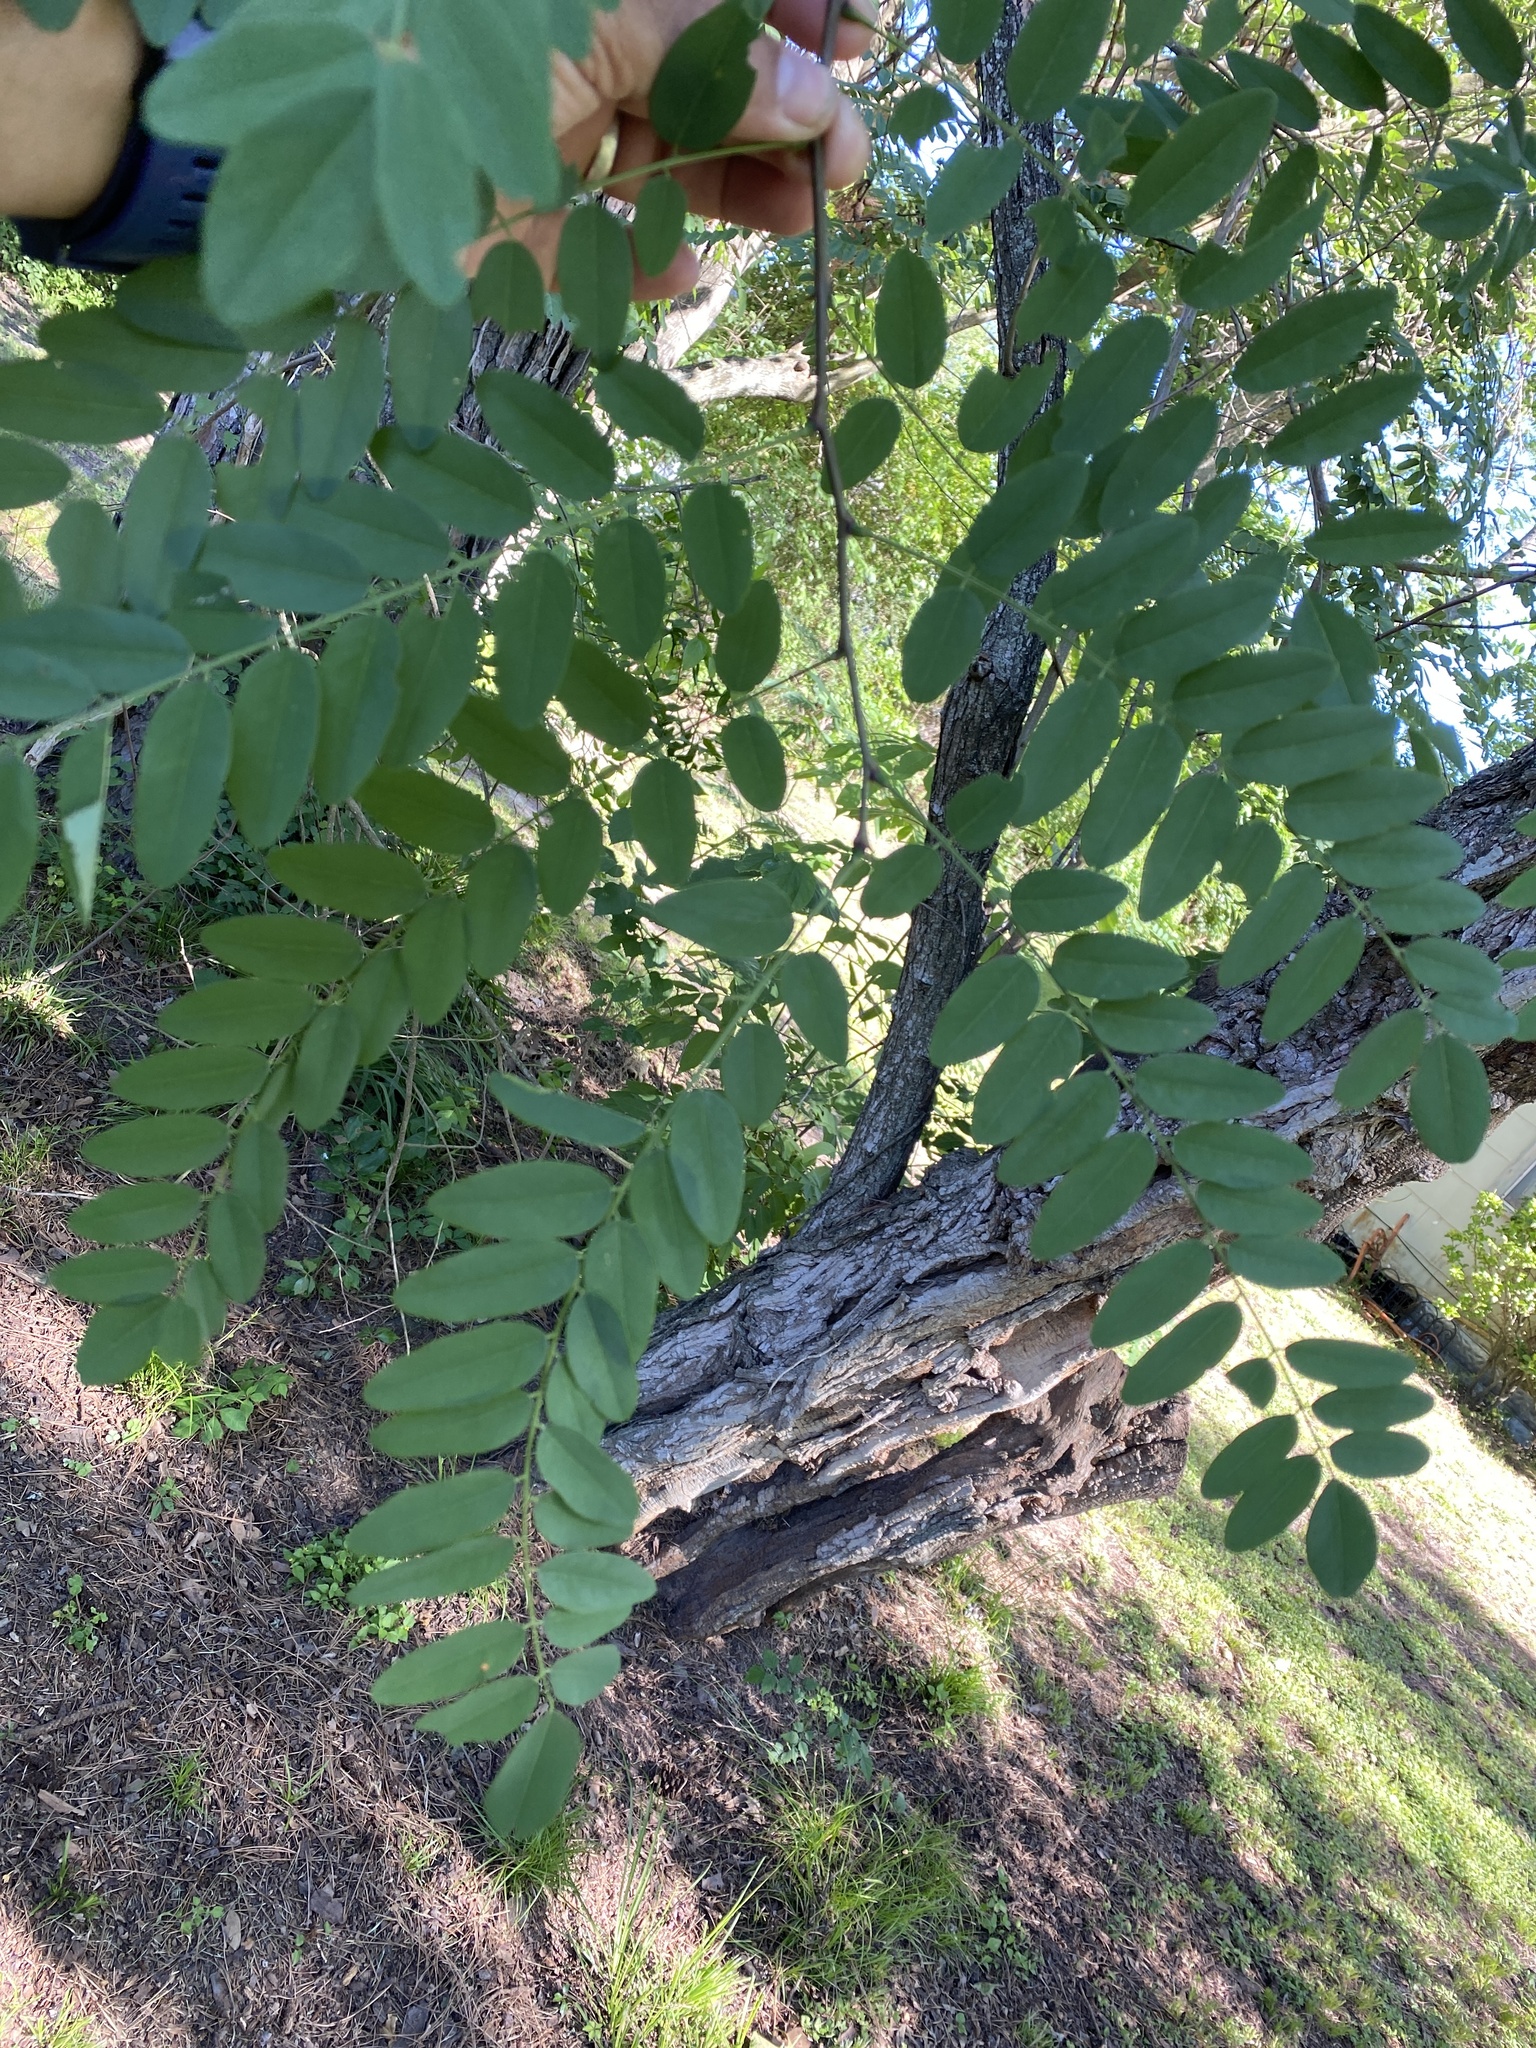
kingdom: Plantae
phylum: Tracheophyta
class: Magnoliopsida
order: Fabales
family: Fabaceae
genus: Robinia
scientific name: Robinia pseudoacacia
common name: Black locust
